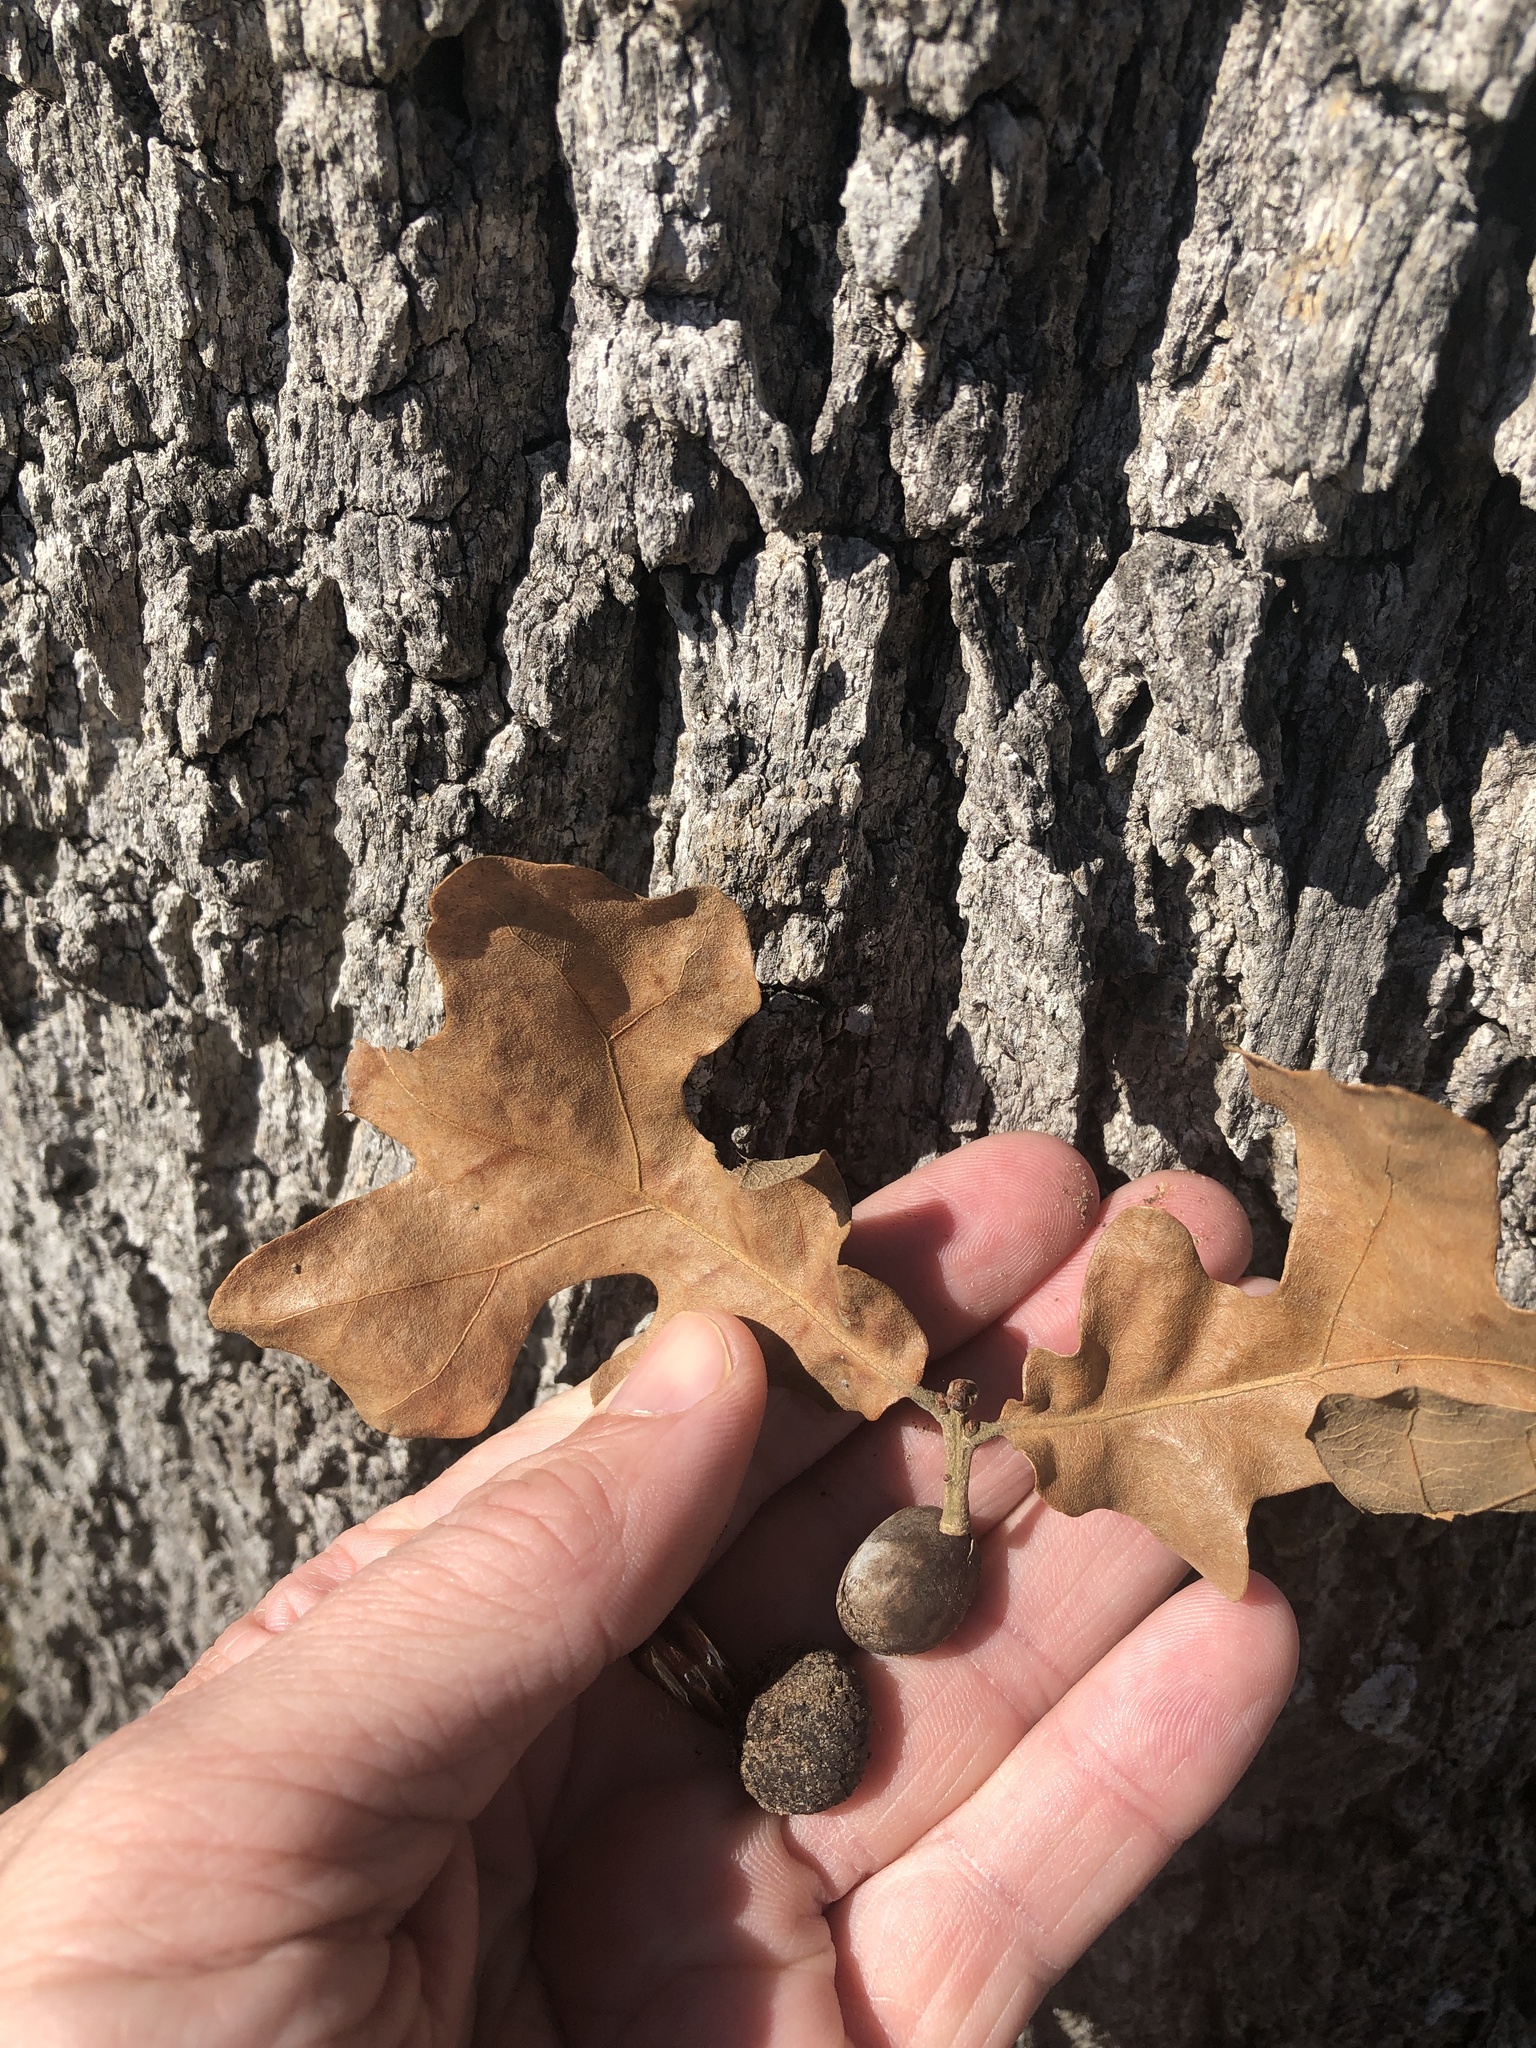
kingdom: Plantae
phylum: Tracheophyta
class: Magnoliopsida
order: Fagales
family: Fagaceae
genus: Quercus
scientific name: Quercus stellata
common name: Post oak
